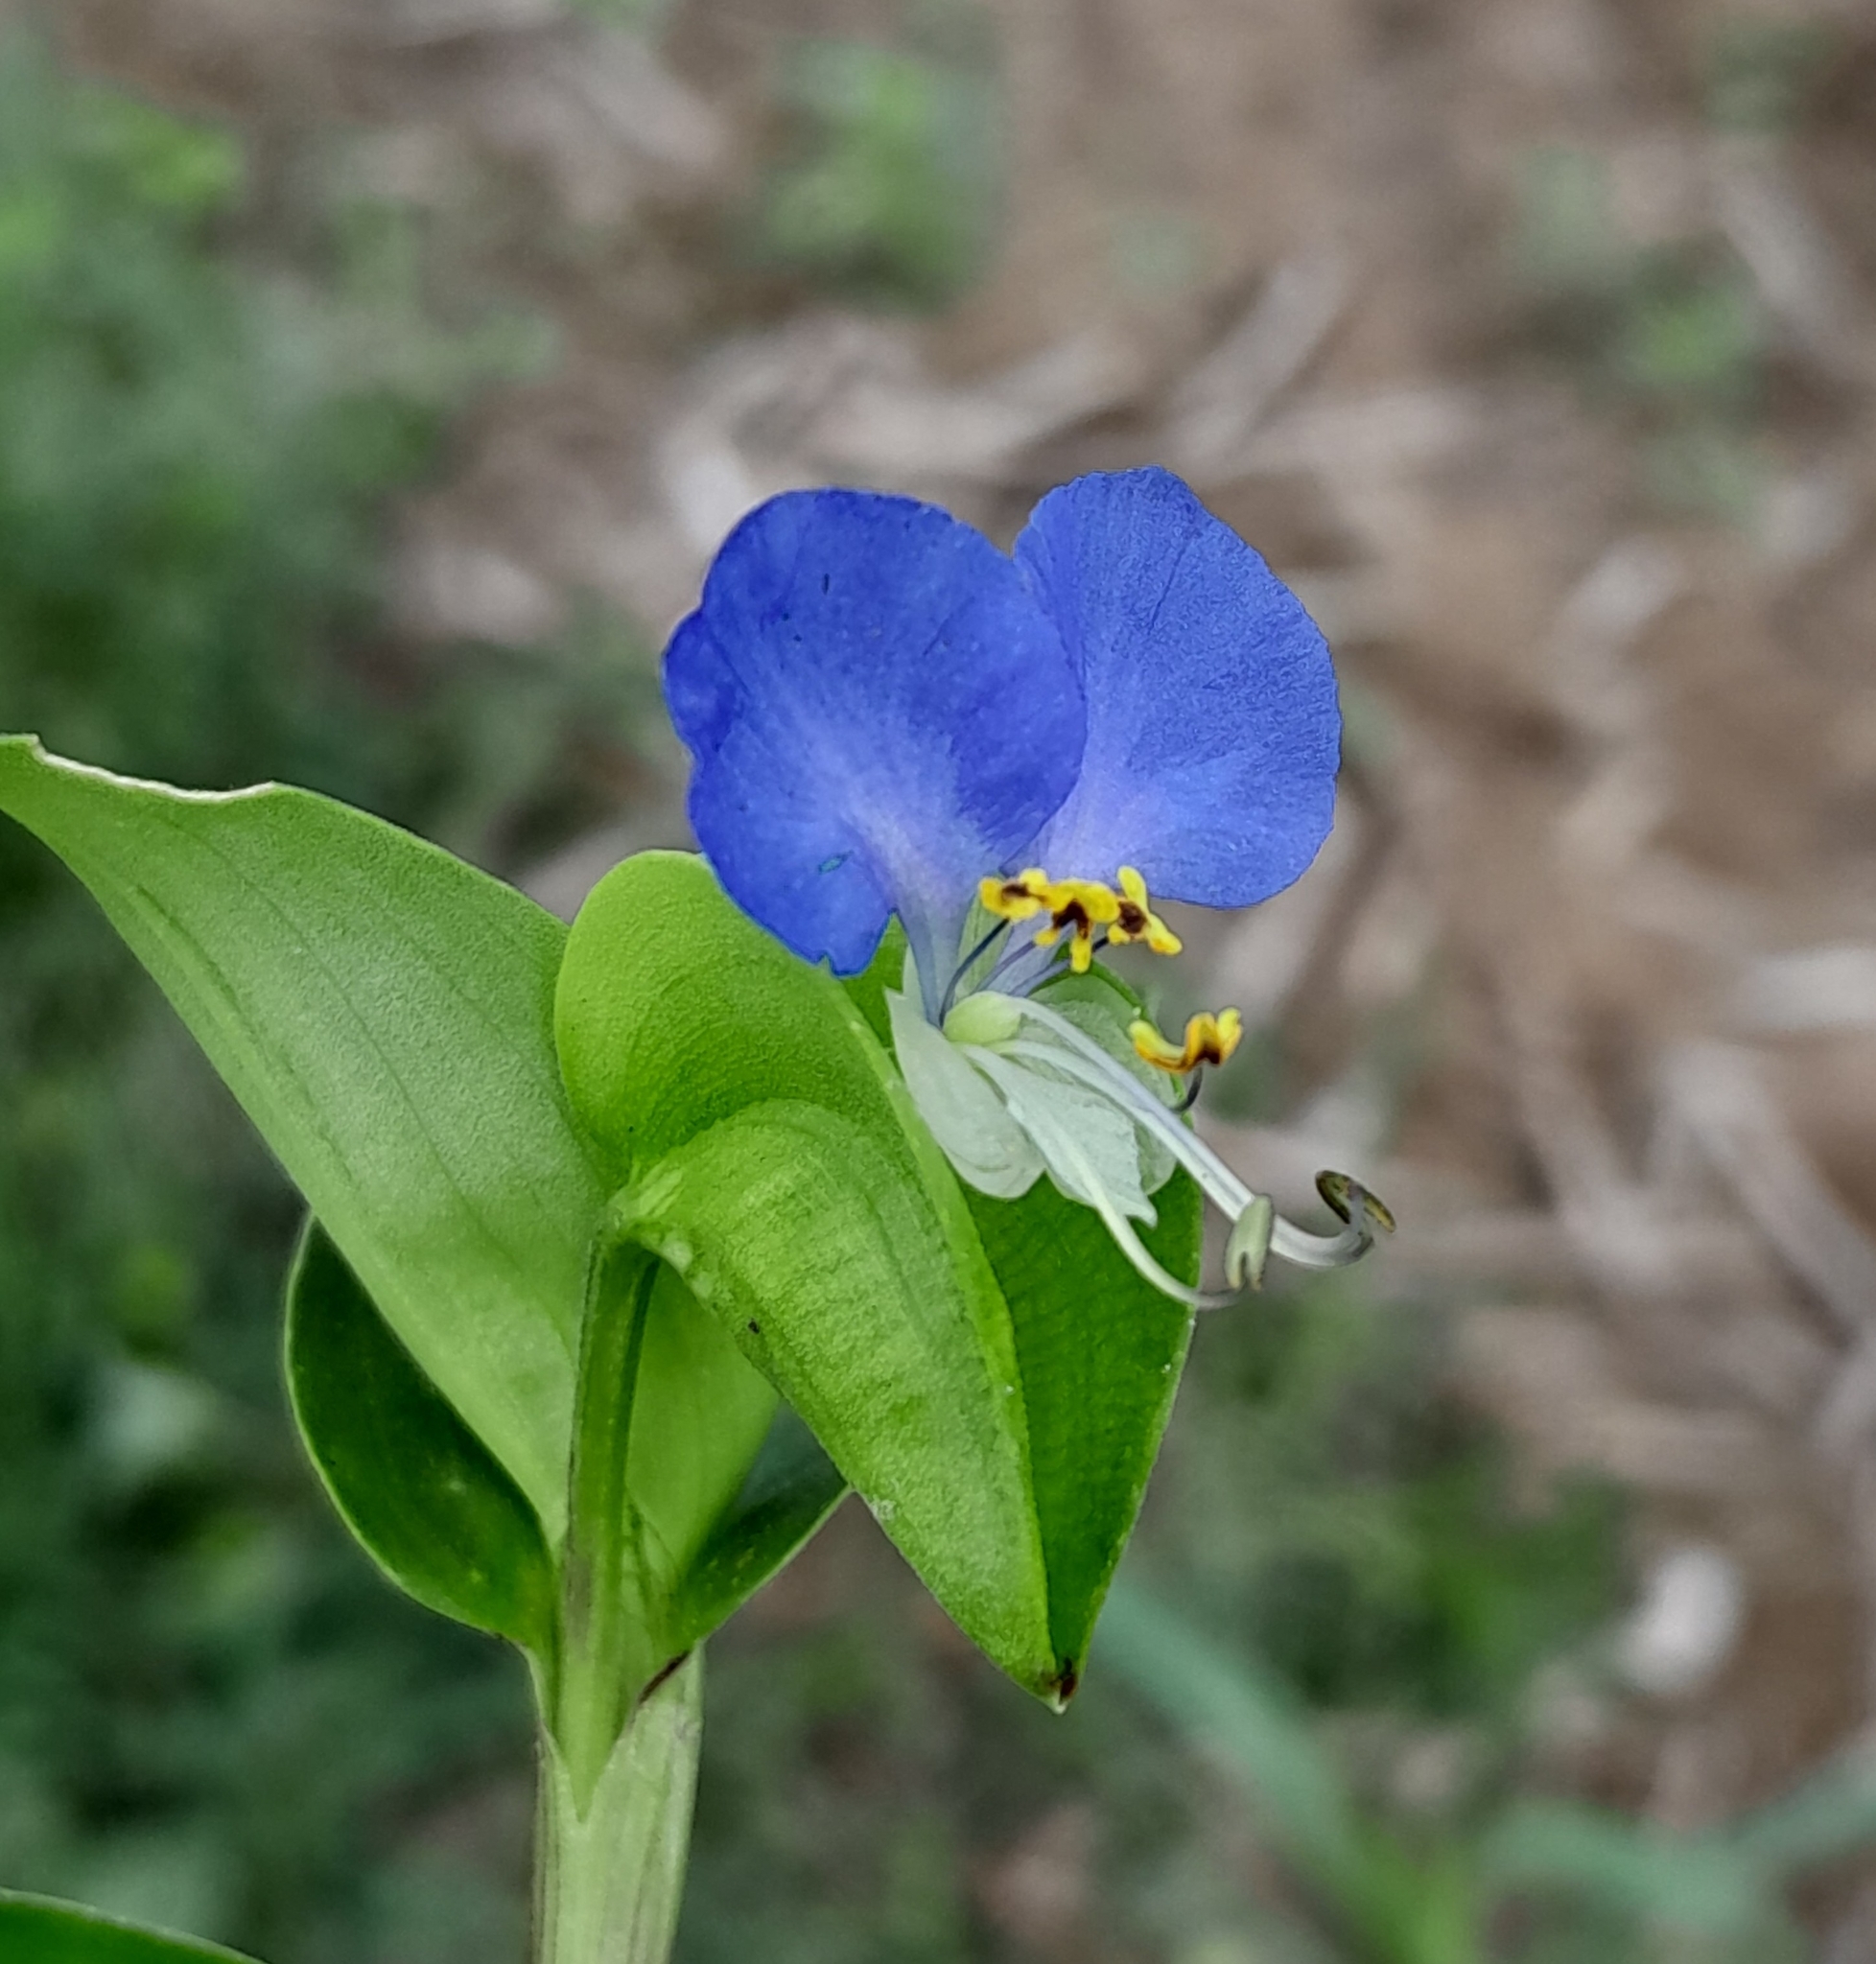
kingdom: Plantae
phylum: Tracheophyta
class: Liliopsida
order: Commelinales
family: Commelinaceae
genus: Commelina
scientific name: Commelina communis
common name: Asiatic dayflower
